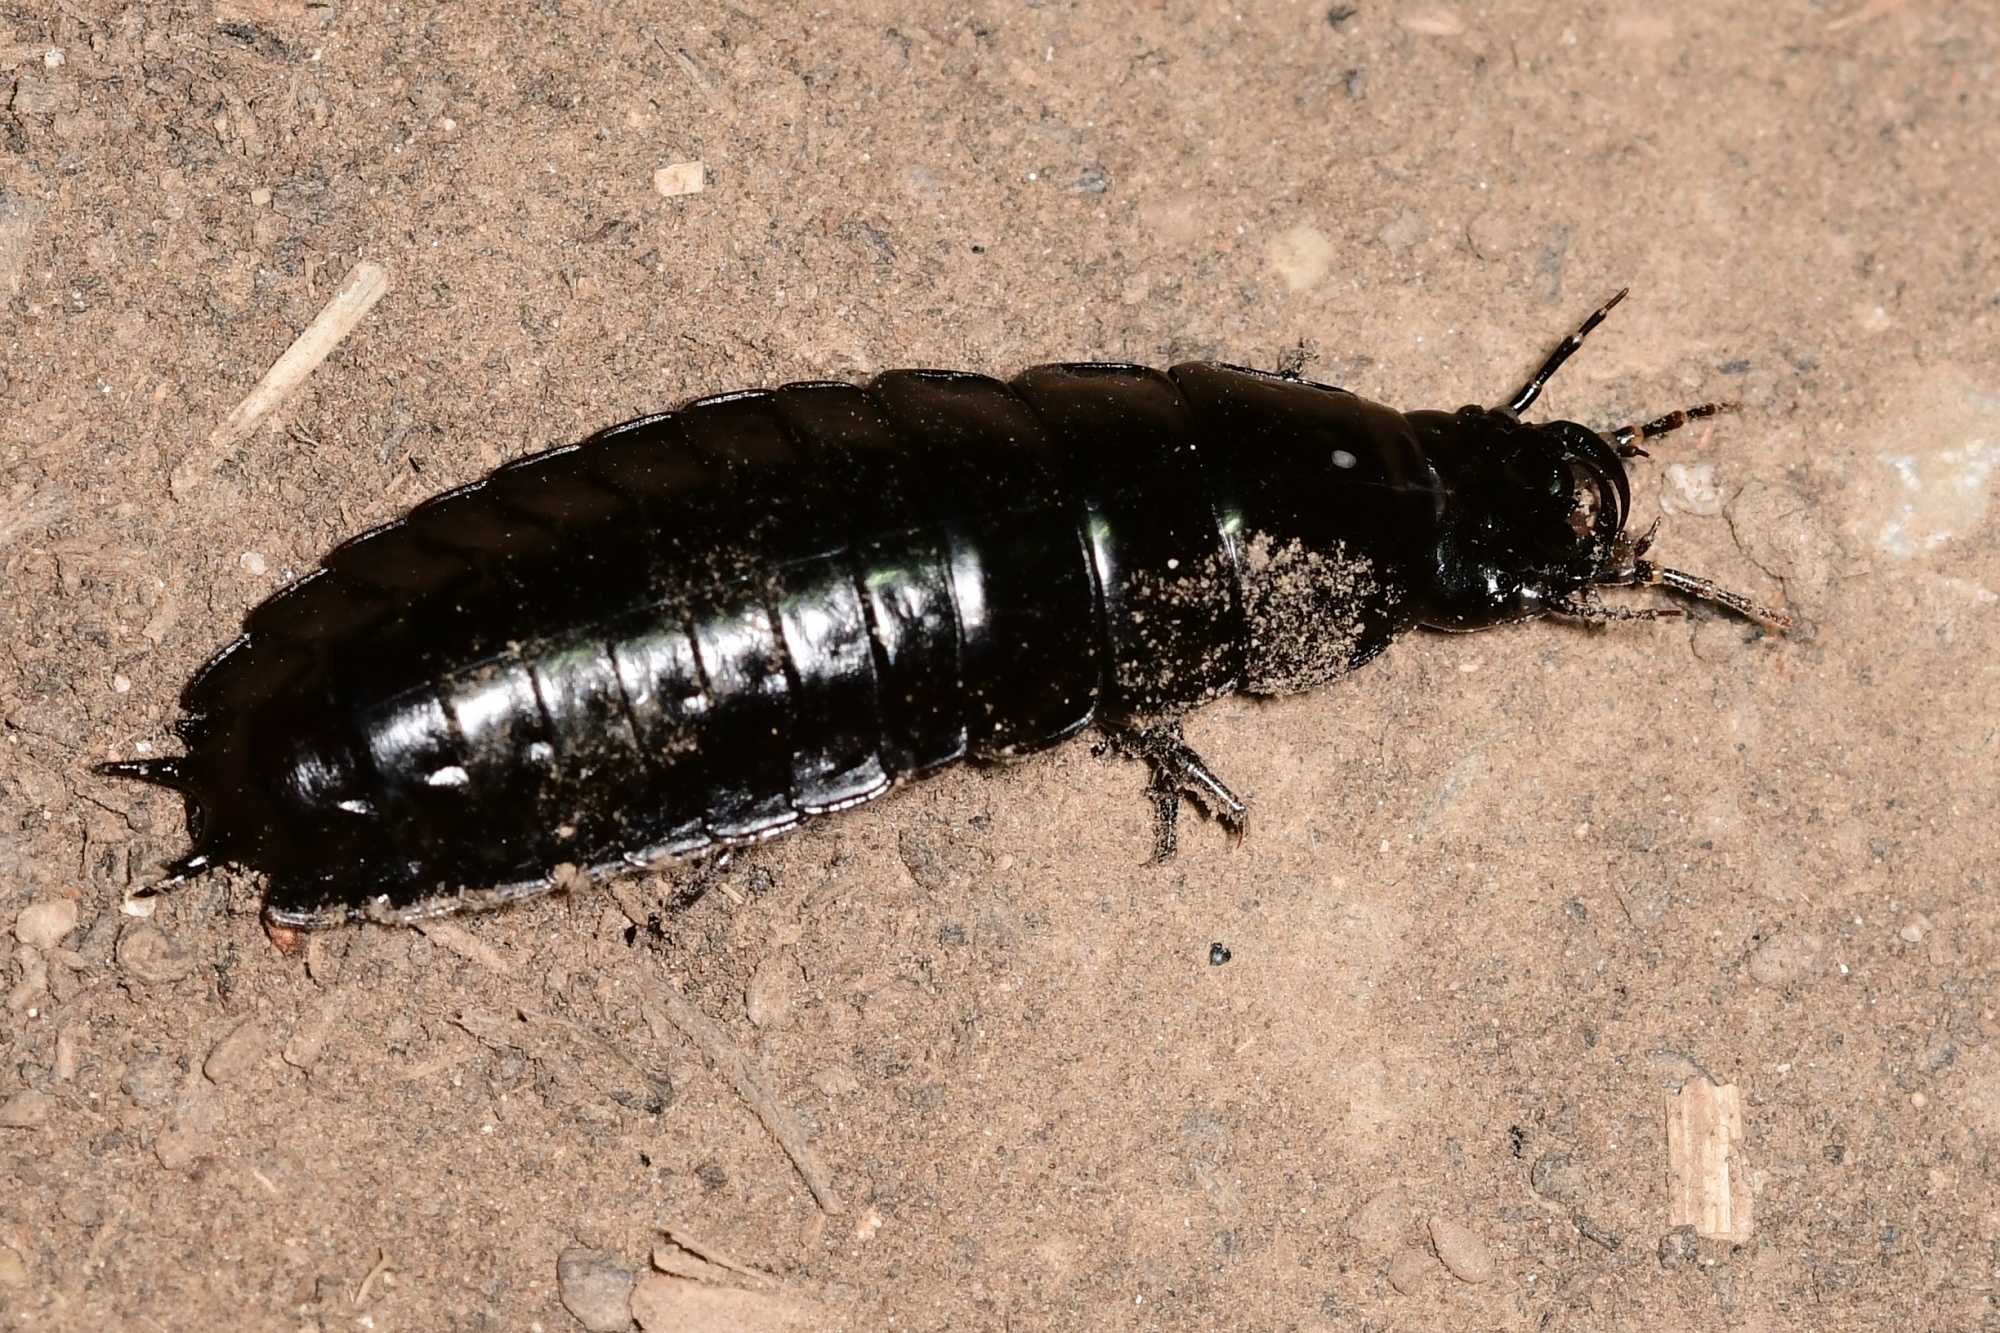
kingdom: Animalia
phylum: Arthropoda
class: Insecta
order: Coleoptera
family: Carabidae
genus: Carabus
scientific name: Carabus
